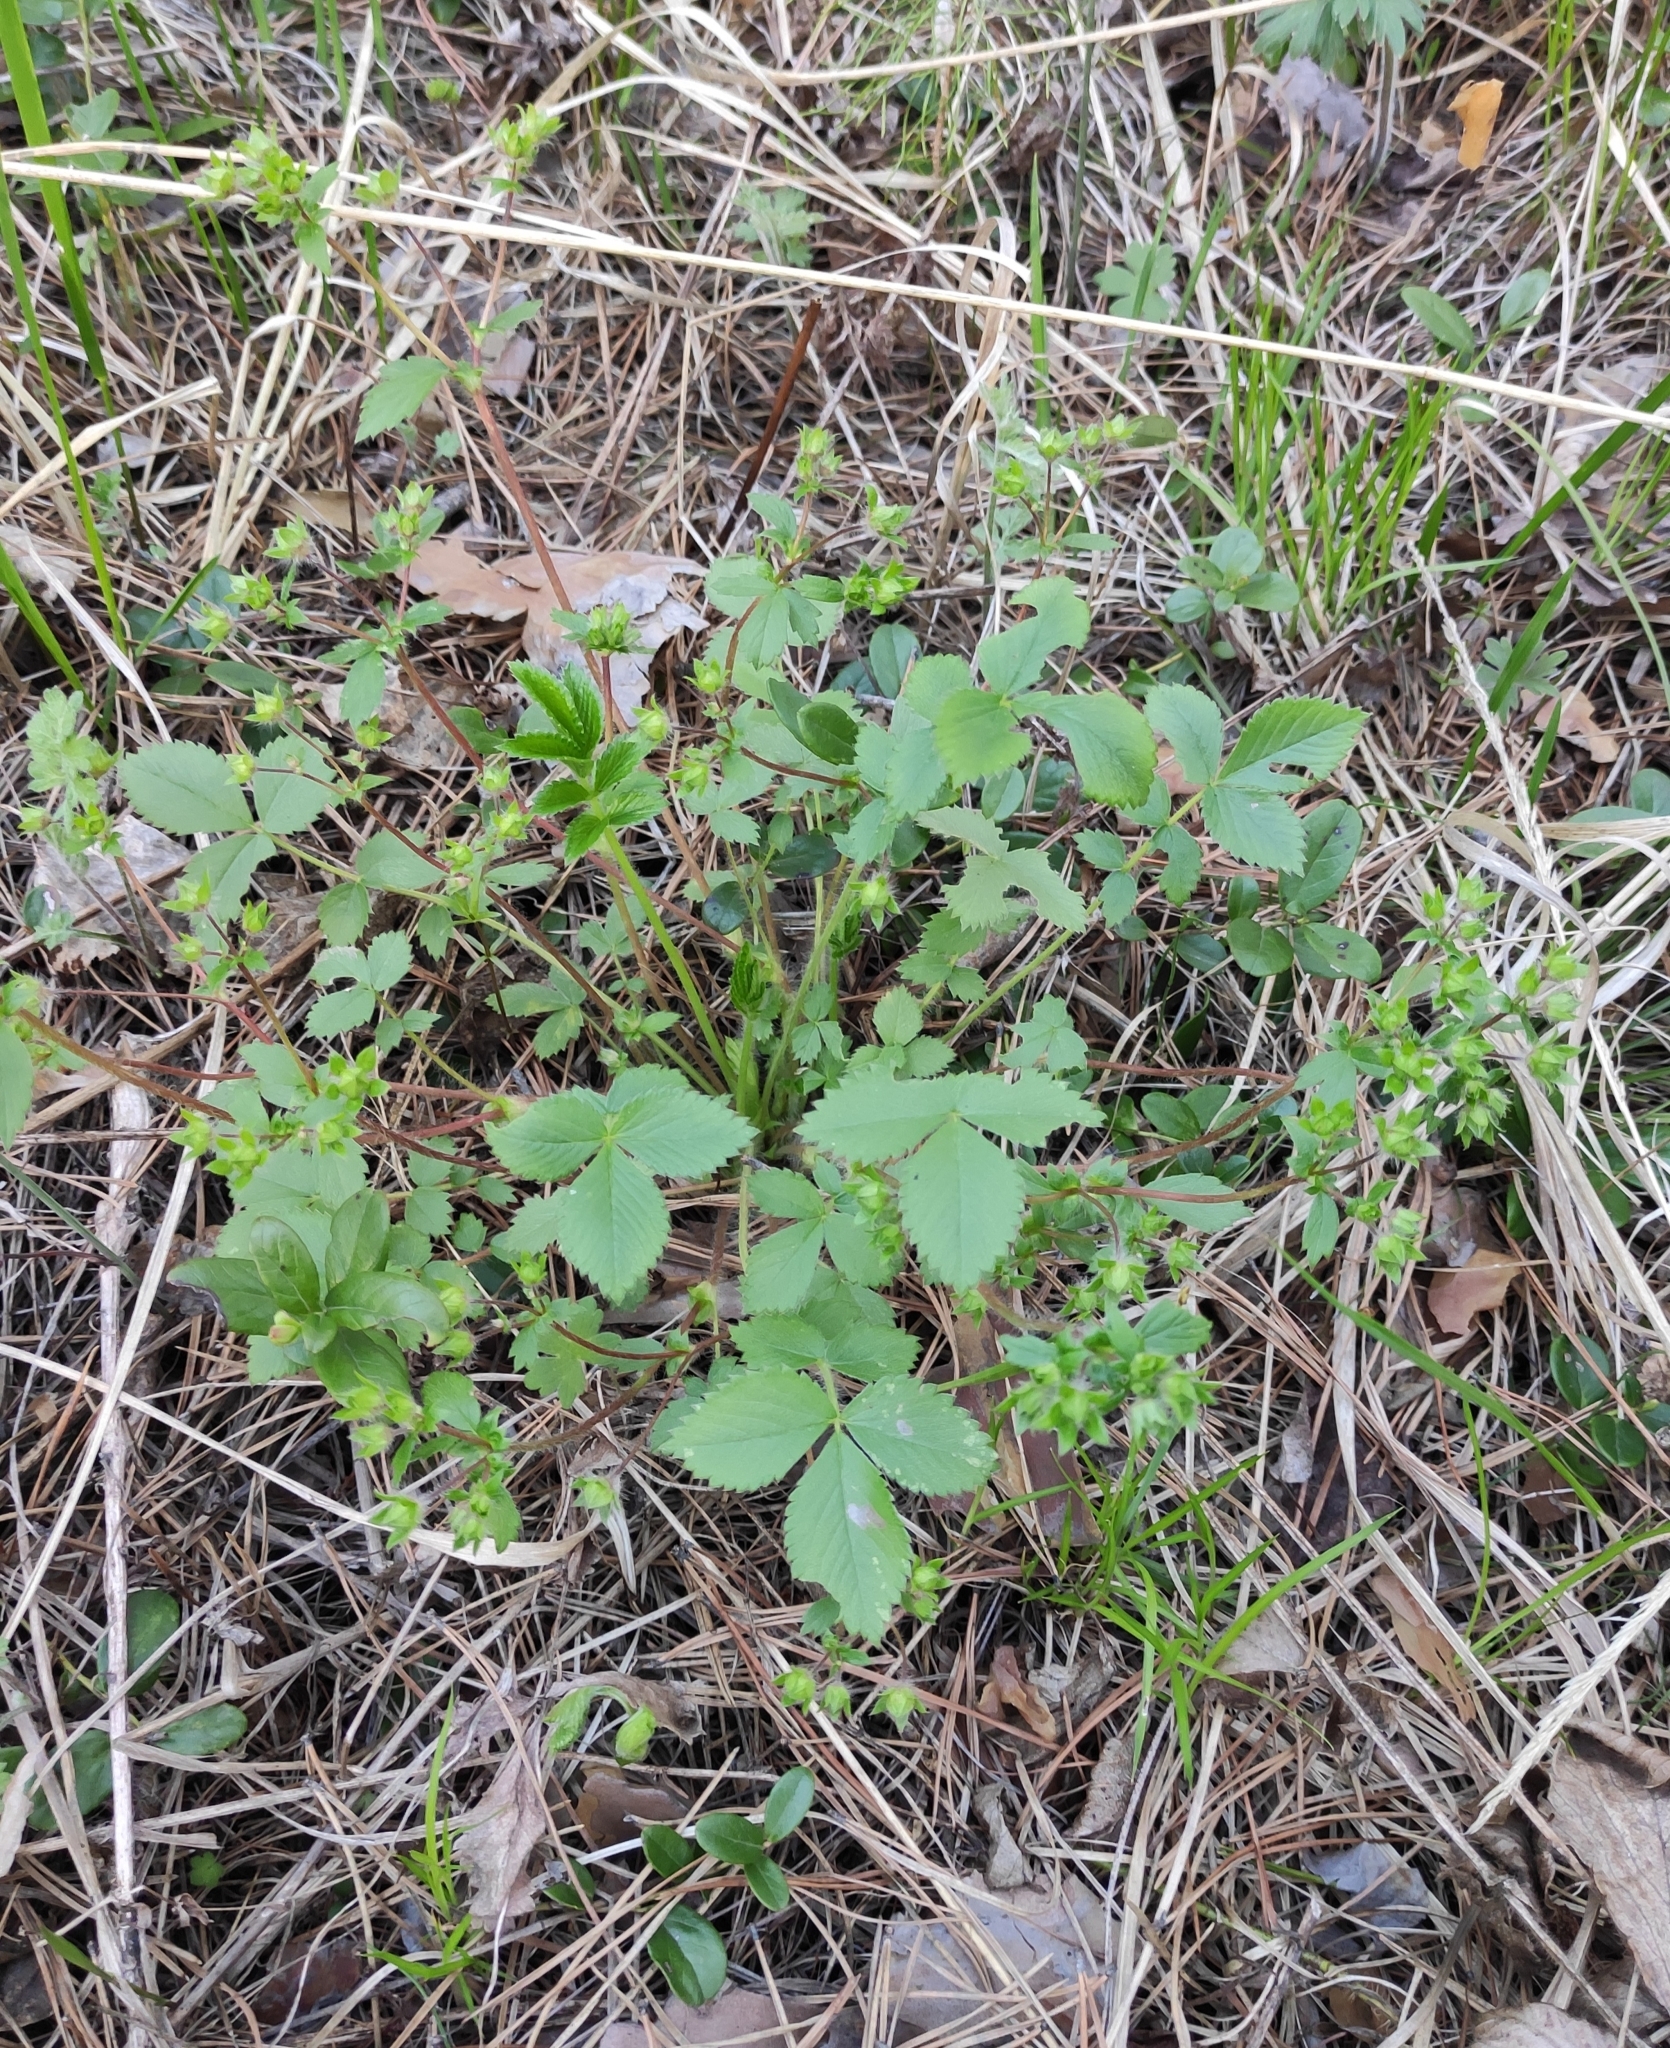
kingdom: Plantae
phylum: Tracheophyta
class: Magnoliopsida
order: Rosales
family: Rosaceae
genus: Potentilla
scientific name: Potentilla fragarioides
